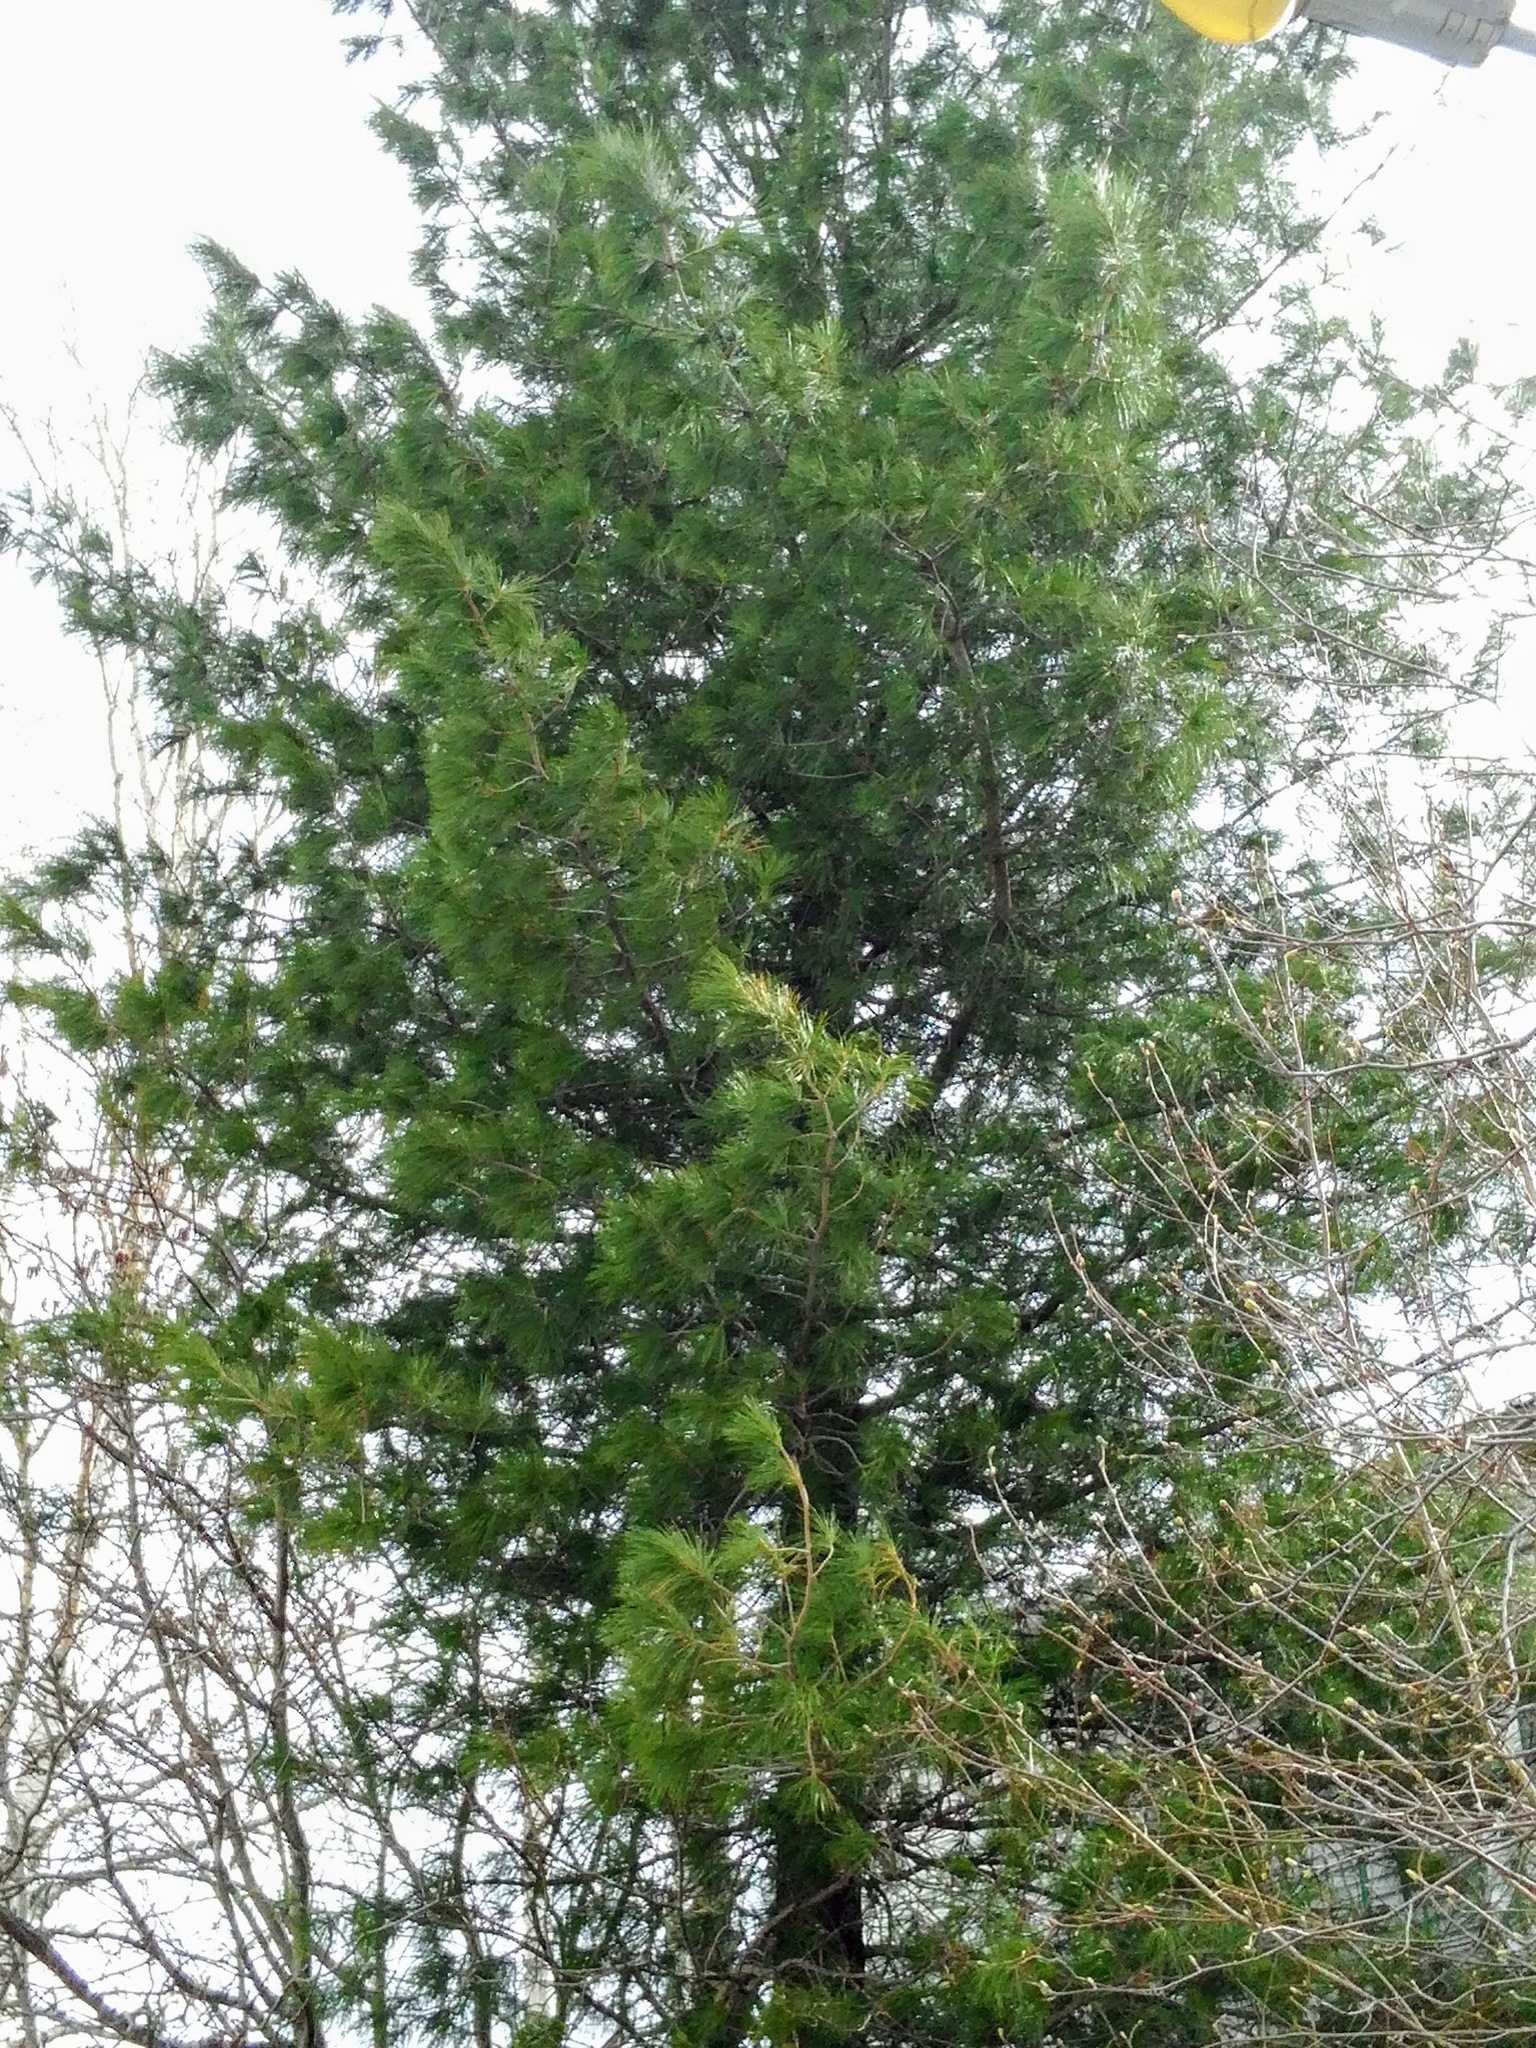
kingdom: Plantae
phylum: Tracheophyta
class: Pinopsida
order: Pinales
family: Pinaceae
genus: Pinus
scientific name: Pinus sibirica
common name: Siberian pine
